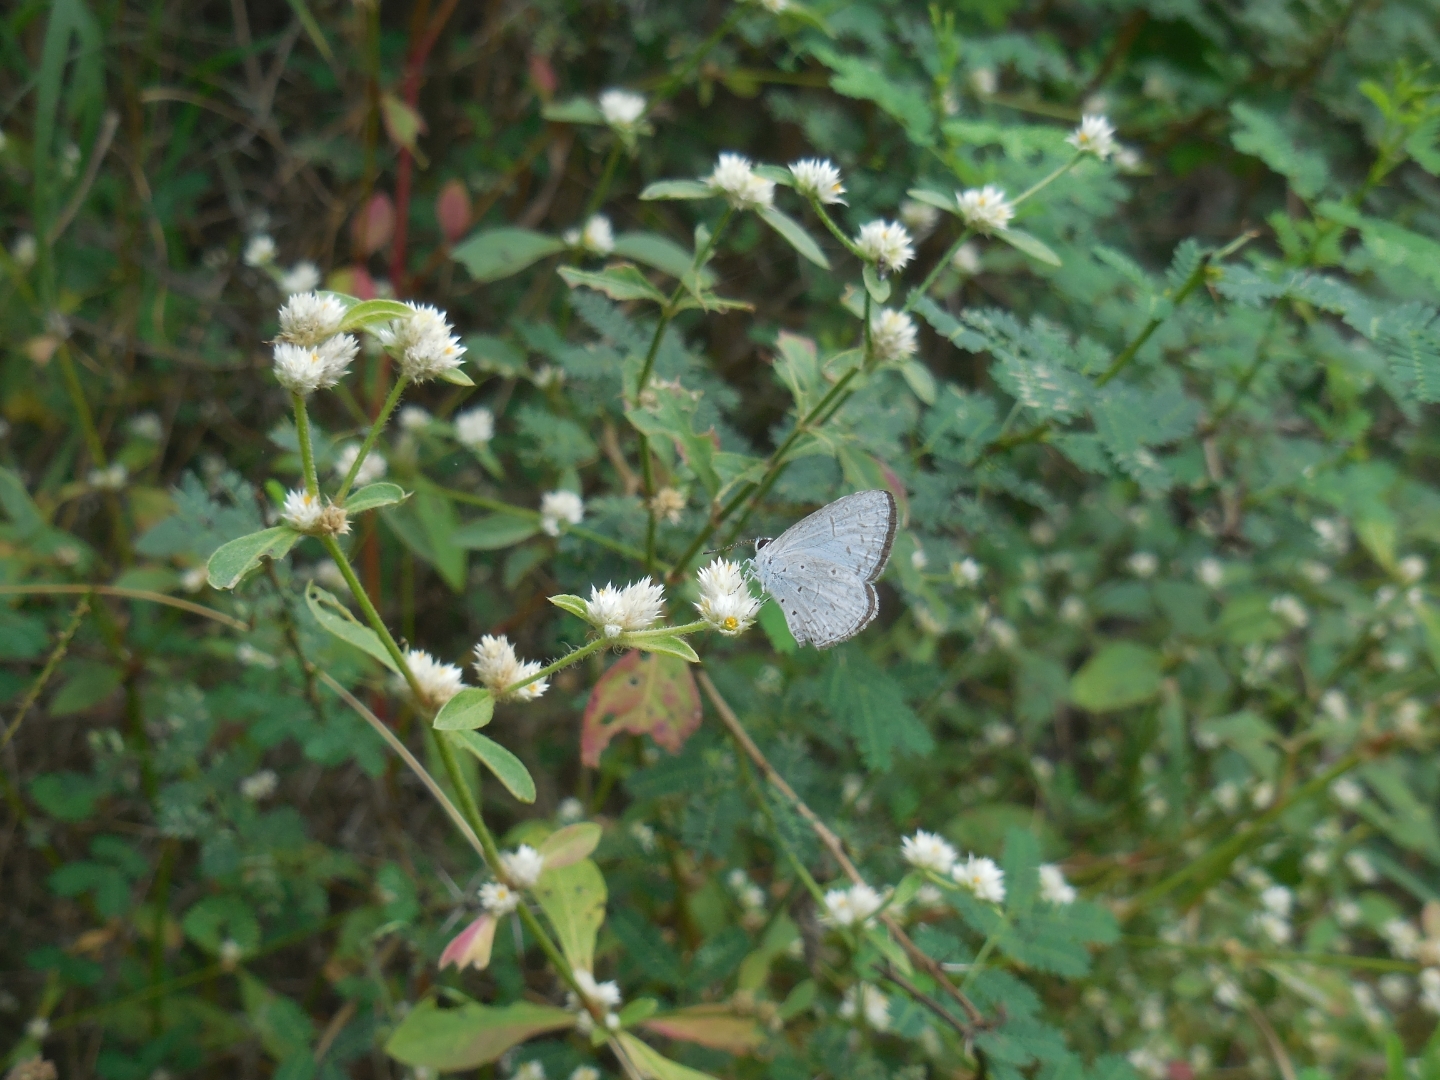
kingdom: Animalia
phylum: Arthropoda
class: Insecta
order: Lepidoptera
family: Lycaenidae
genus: Acytolepis
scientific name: Acytolepis puspa
